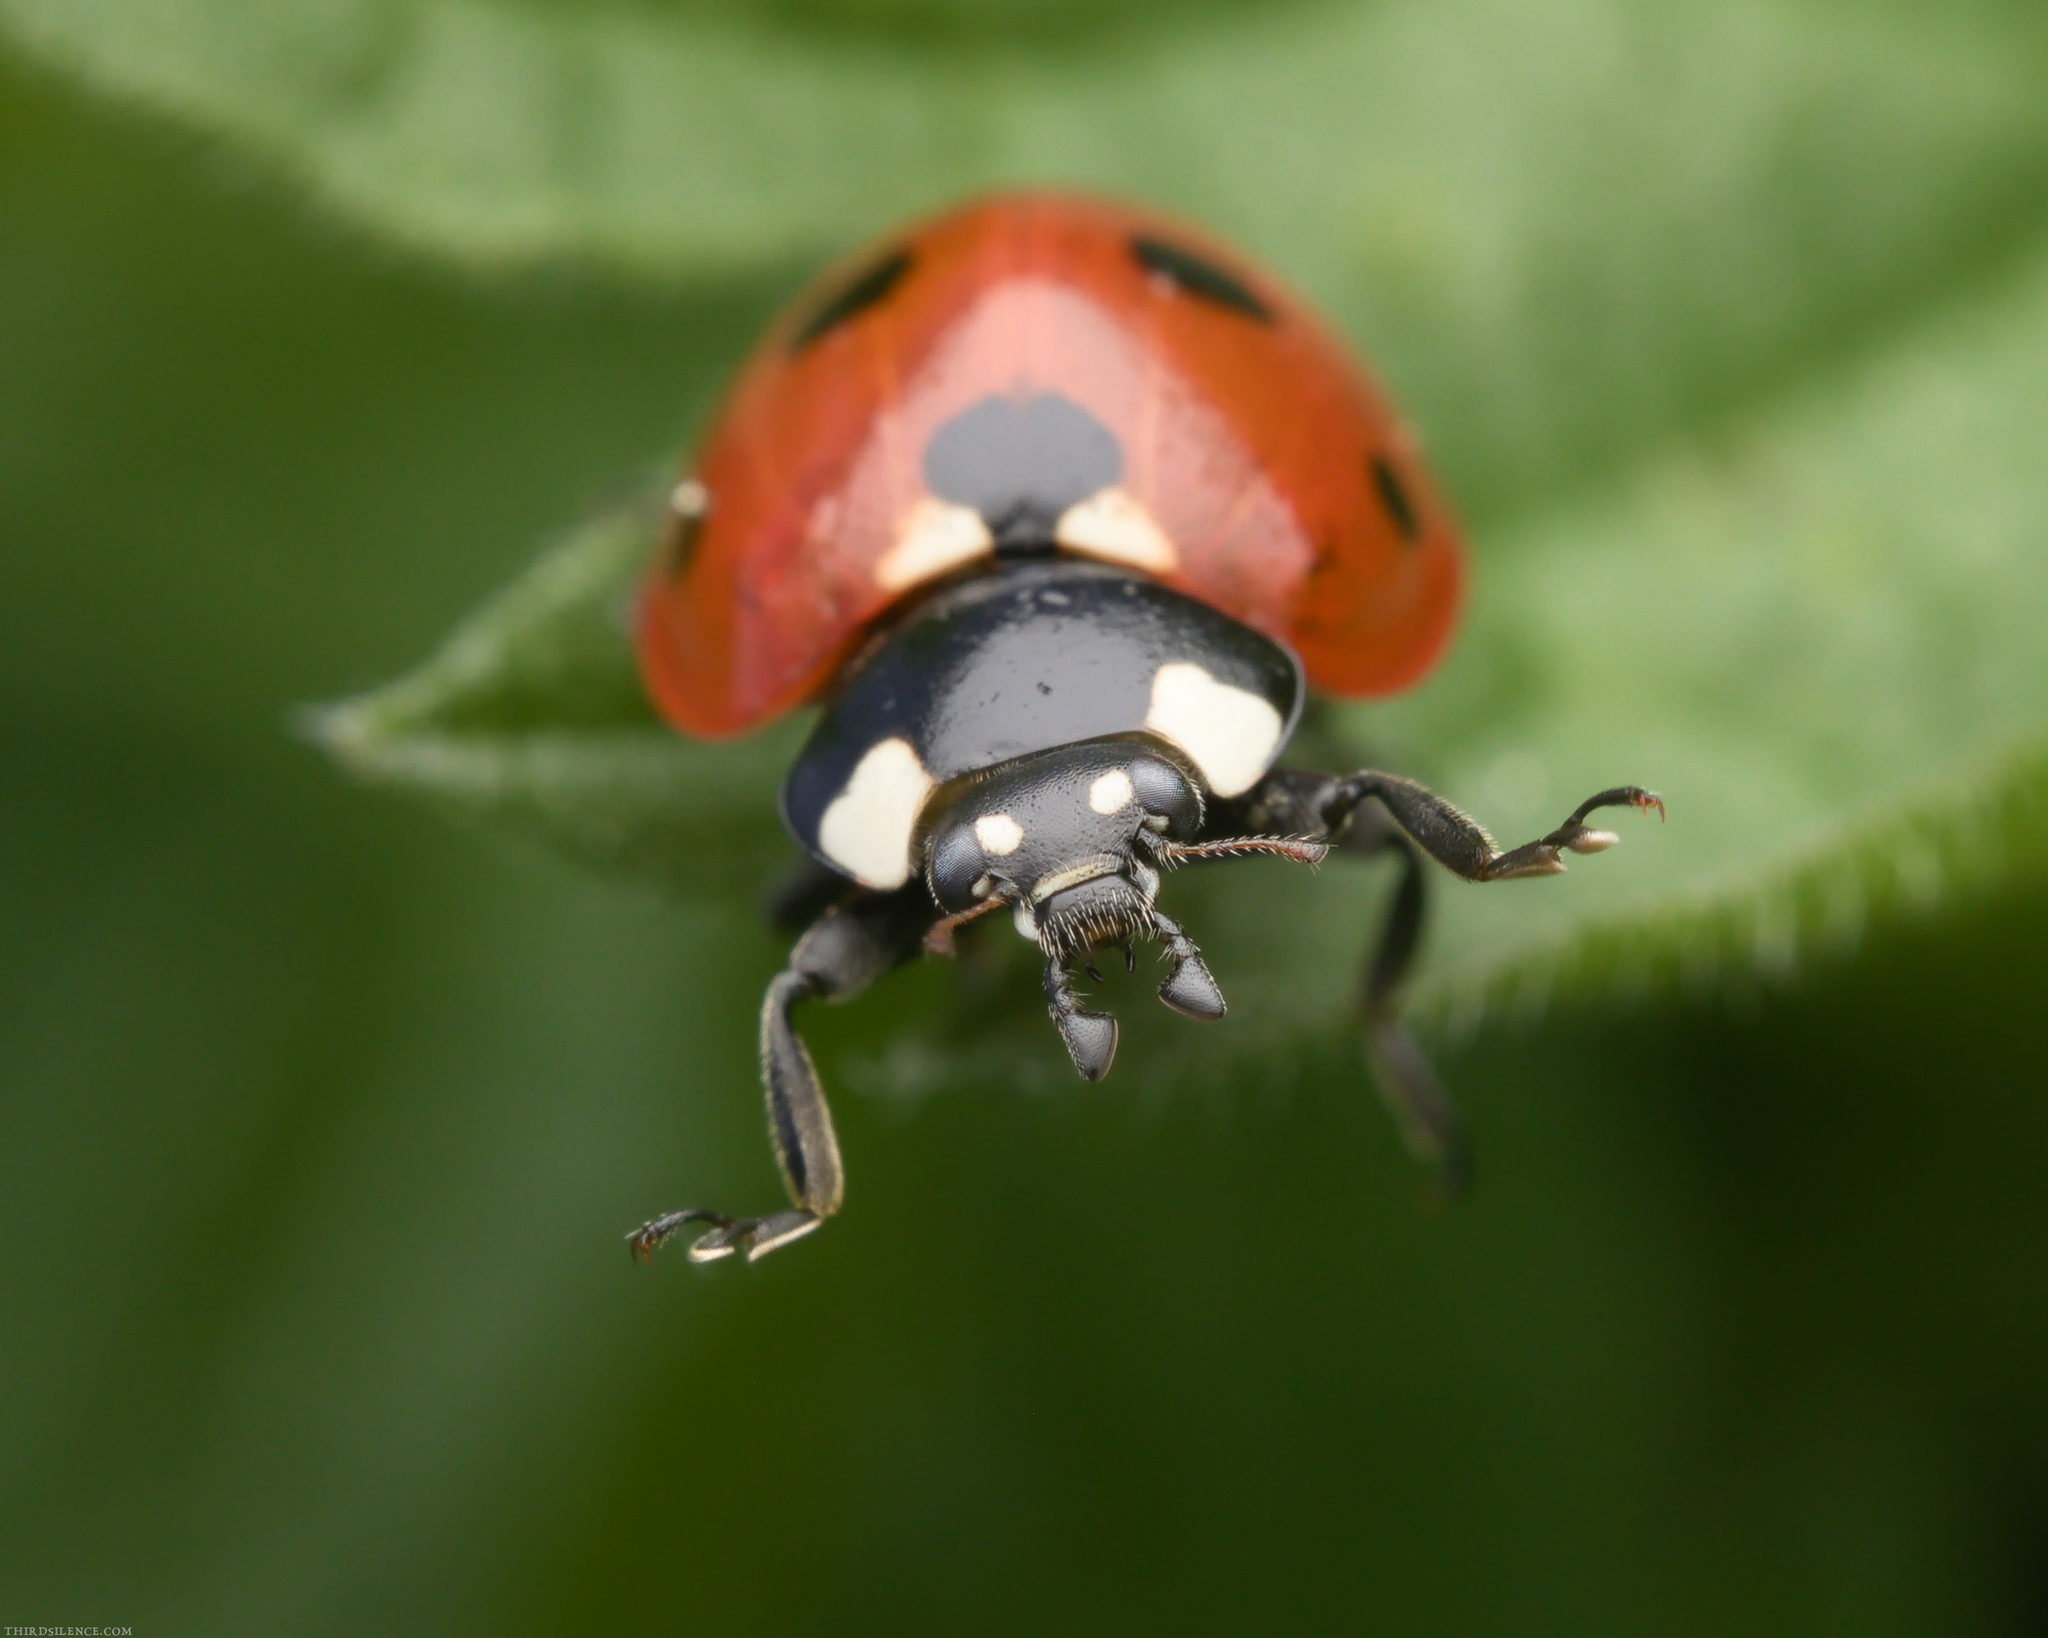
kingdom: Animalia
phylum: Arthropoda
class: Insecta
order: Coleoptera
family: Coccinellidae
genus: Coccinella
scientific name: Coccinella septempunctata
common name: Sevenspotted lady beetle
